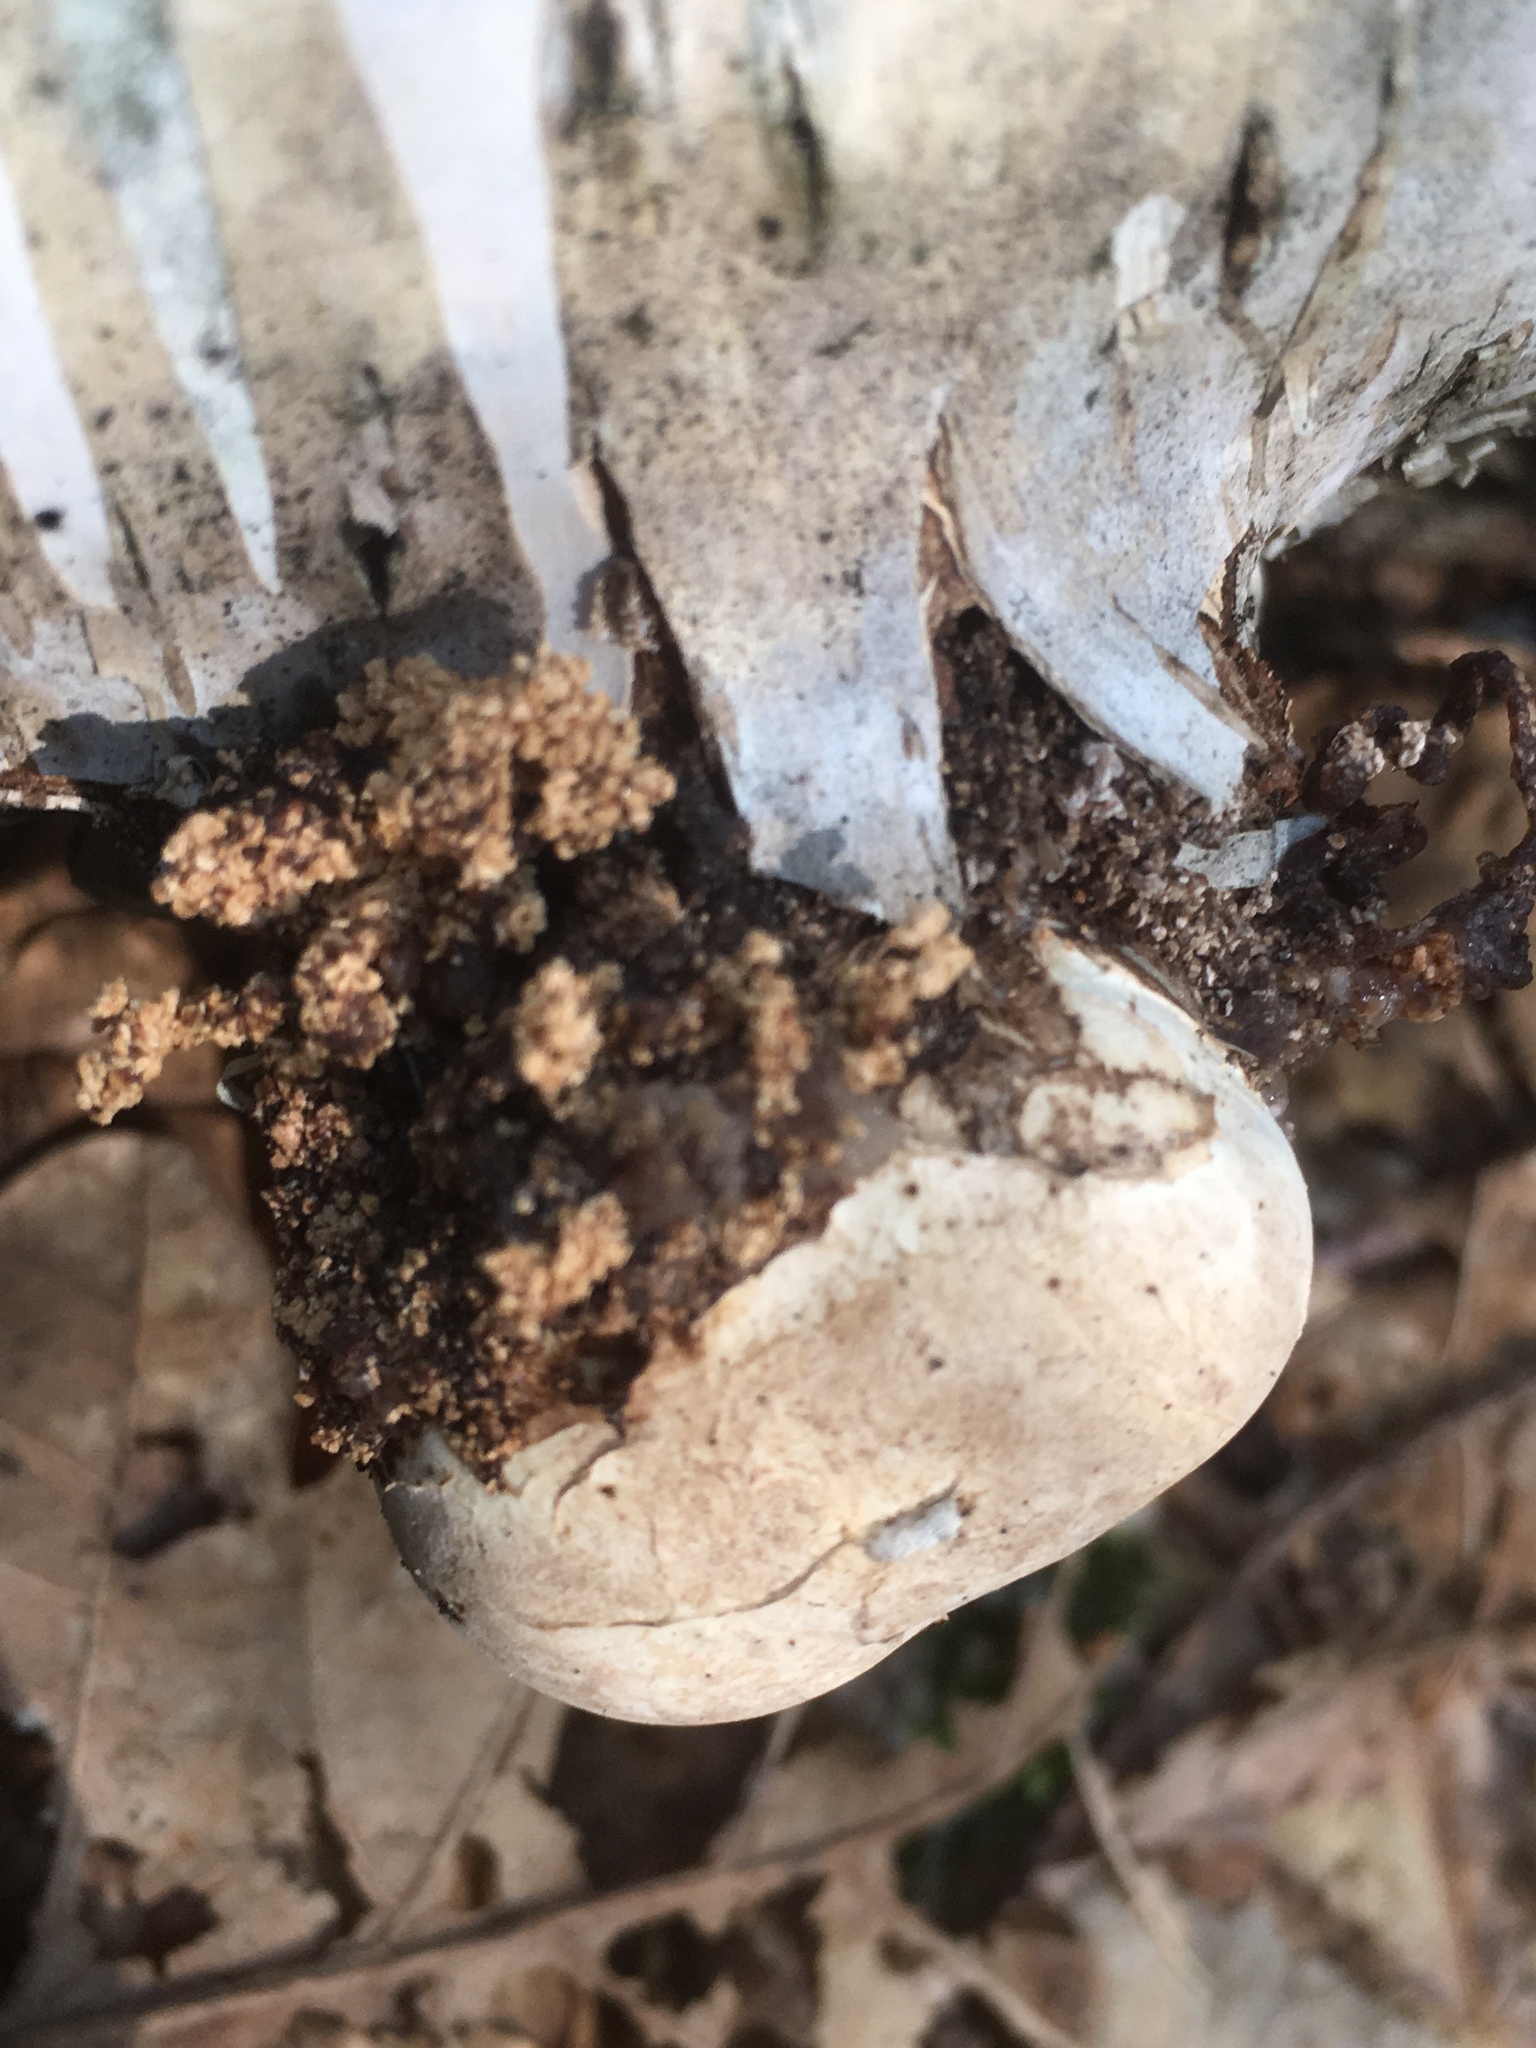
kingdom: Fungi
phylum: Basidiomycota
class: Agaricomycetes
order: Polyporales
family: Fomitopsidaceae
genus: Fomitopsis
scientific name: Fomitopsis betulina
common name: Birch polypore
